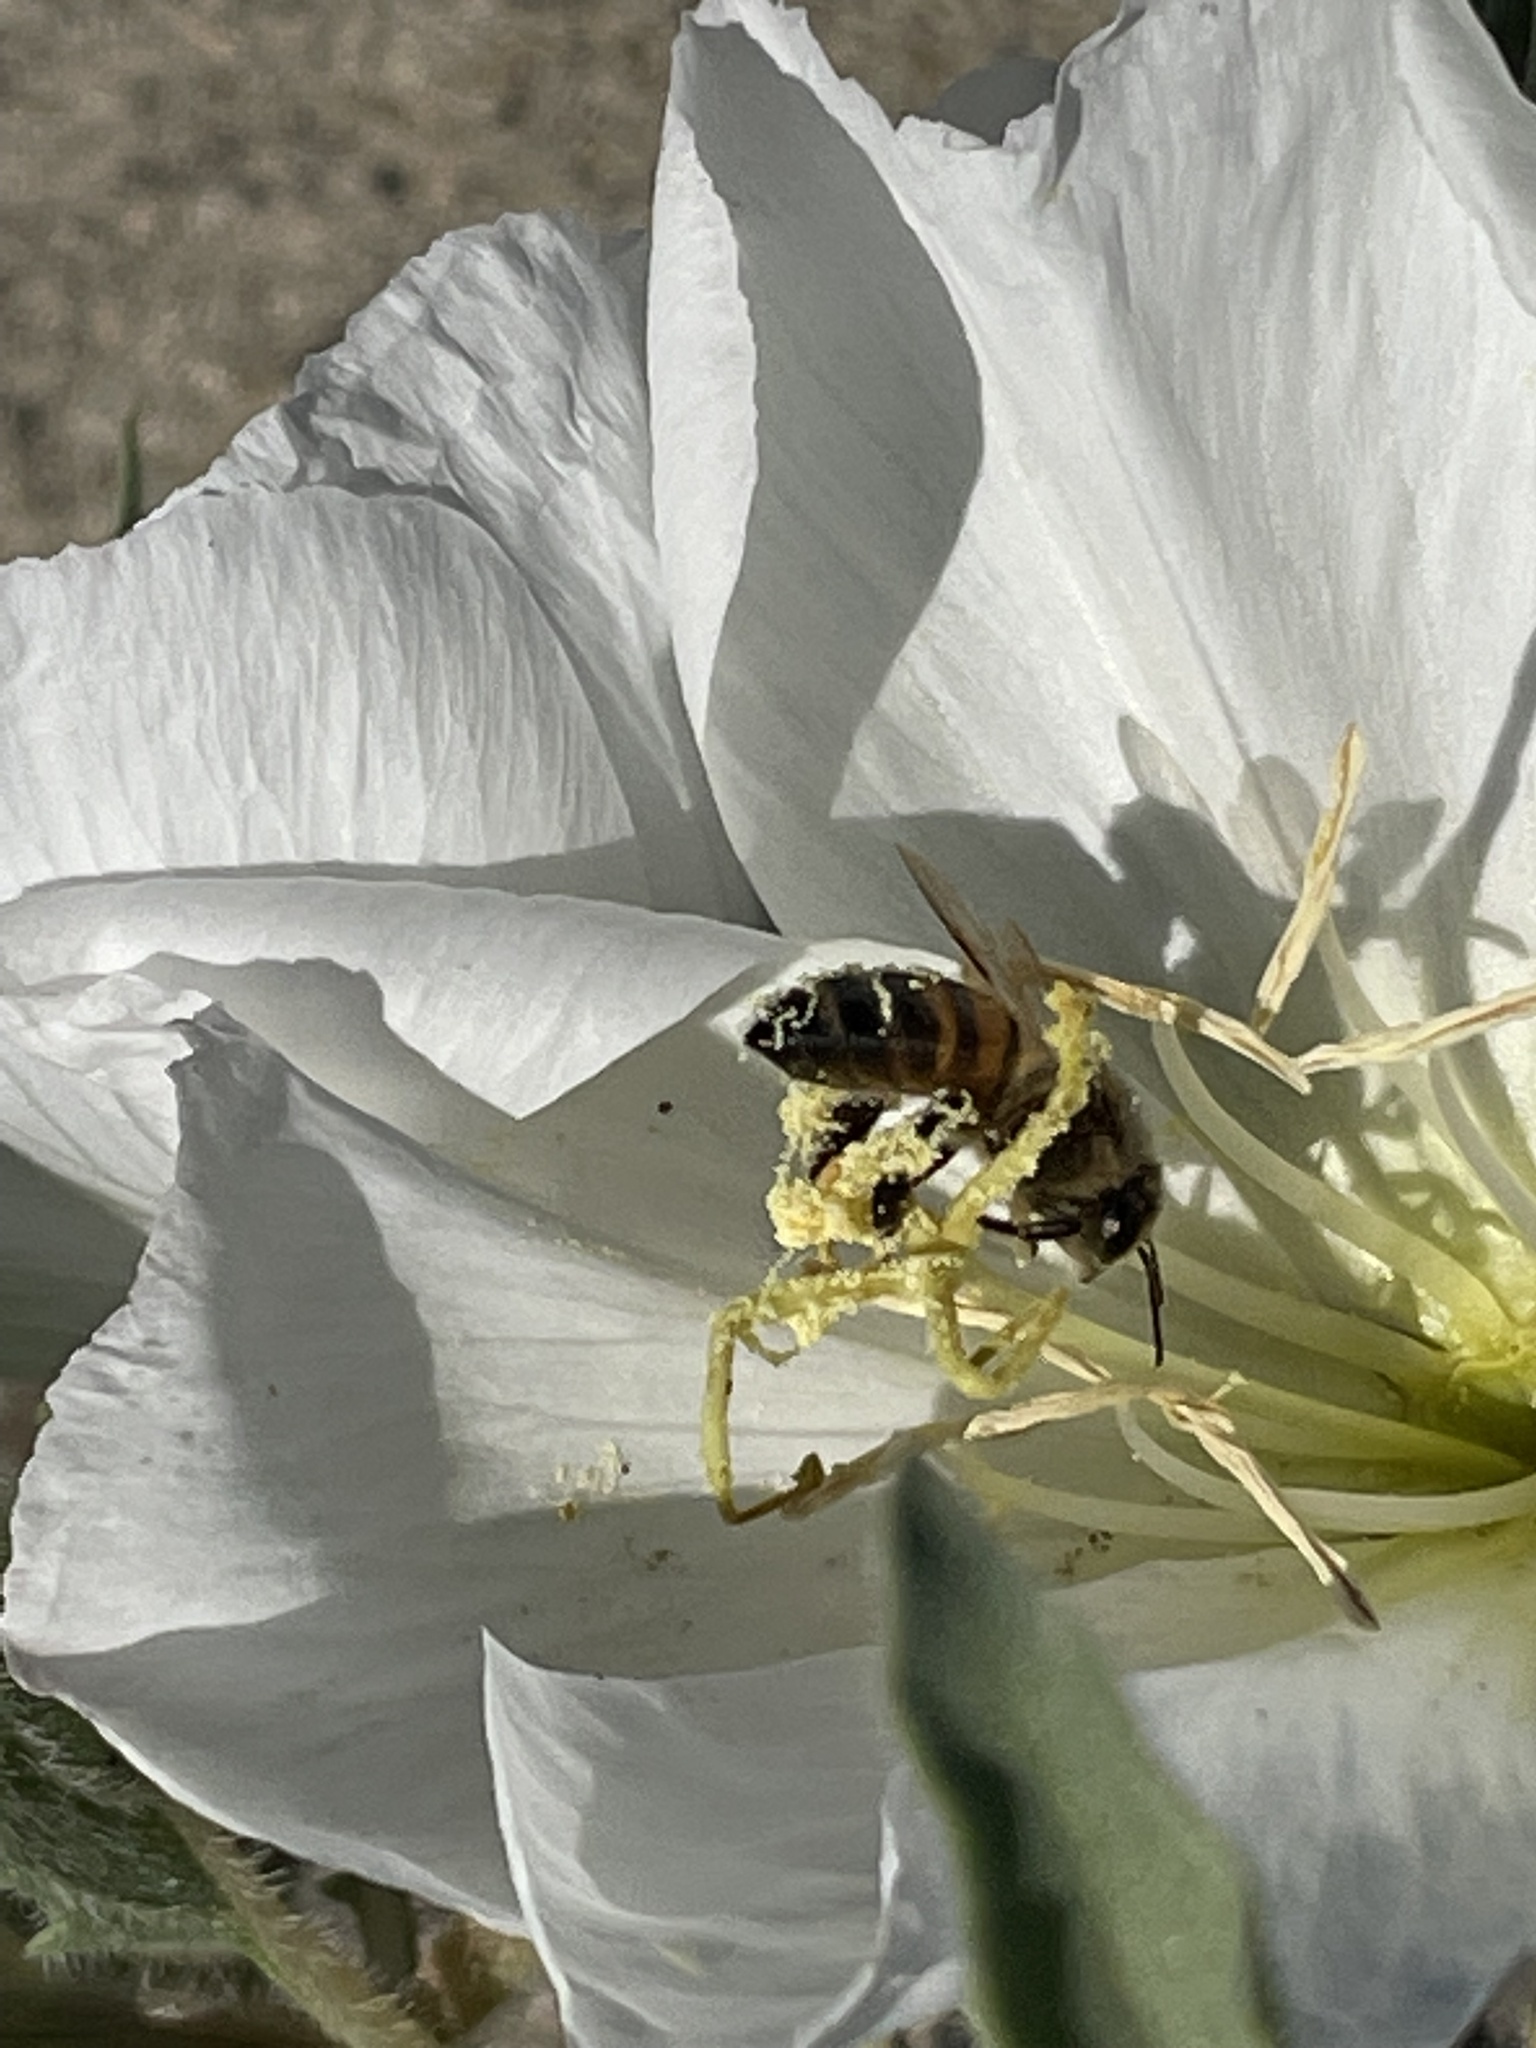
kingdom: Animalia
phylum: Arthropoda
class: Insecta
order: Hymenoptera
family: Apidae
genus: Apis
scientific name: Apis mellifera
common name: Honey bee
